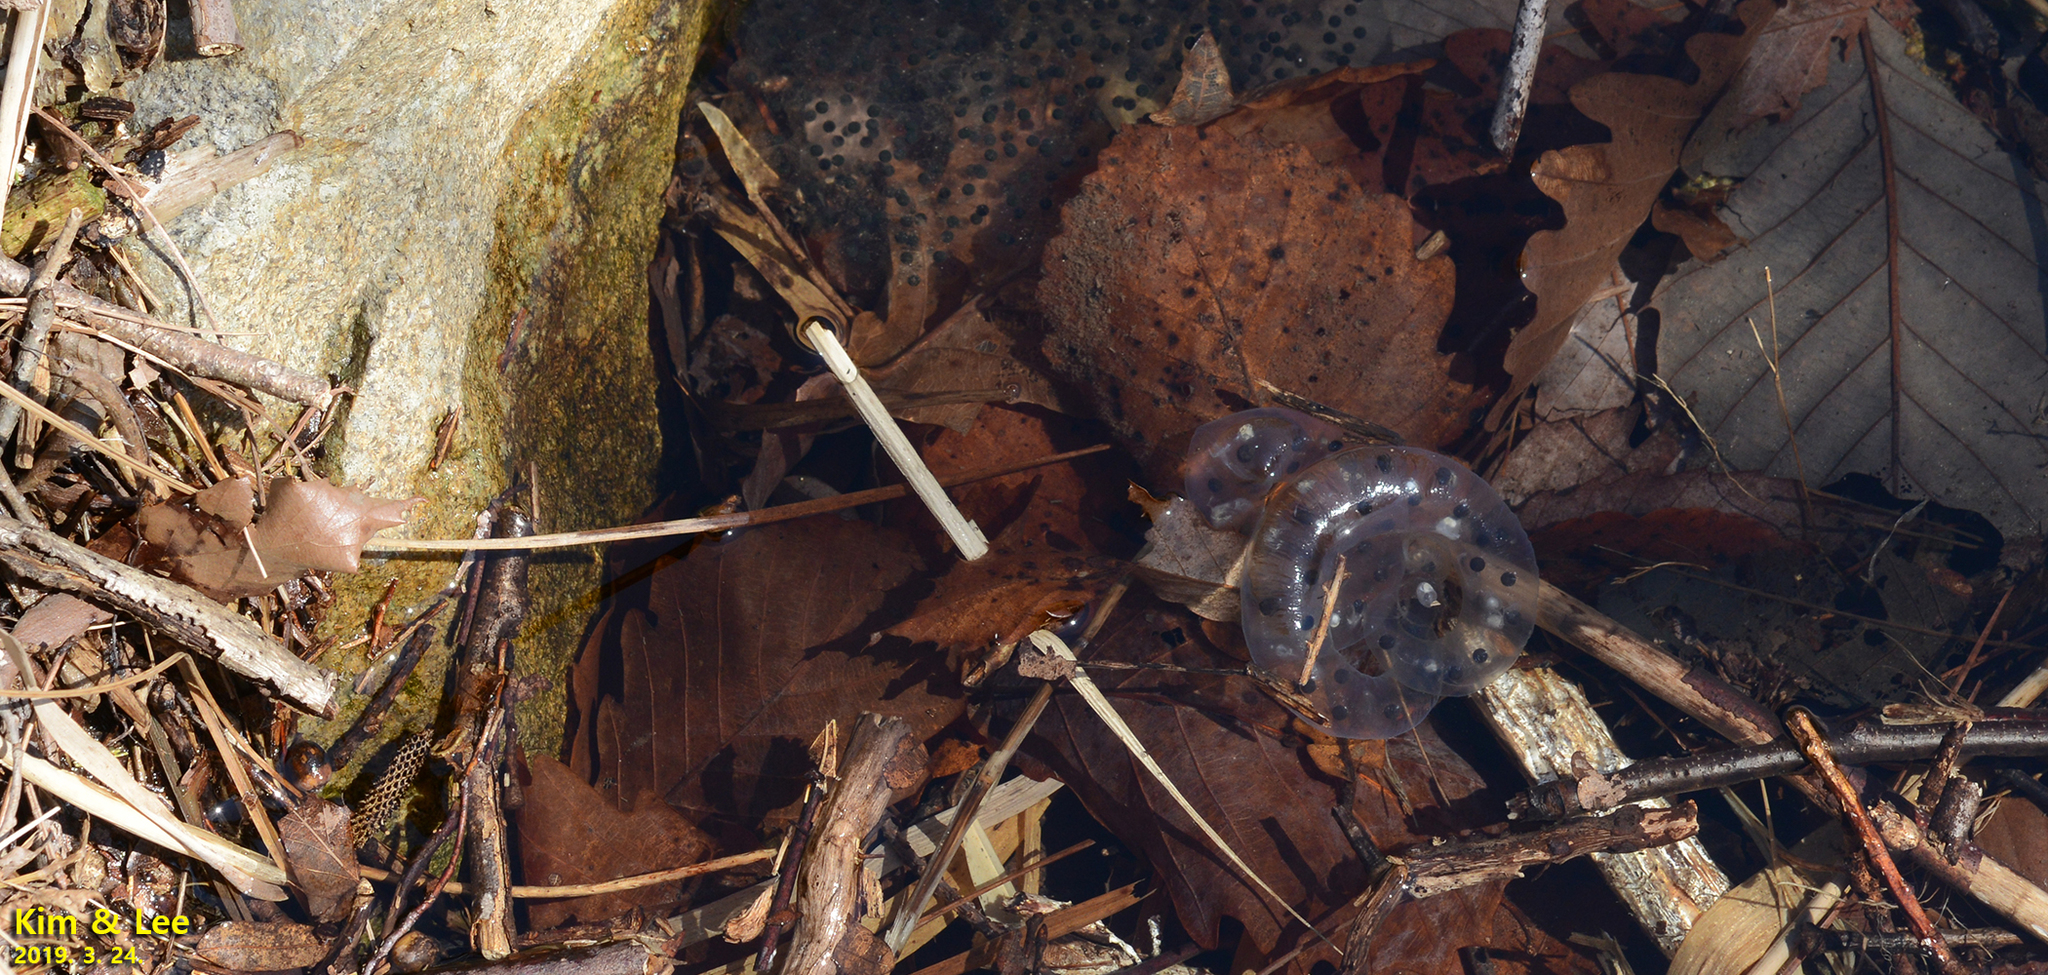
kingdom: Animalia
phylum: Chordata
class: Amphibia
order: Caudata
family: Hynobiidae
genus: Hynobius
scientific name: Hynobius leechii
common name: Gensan salamander
